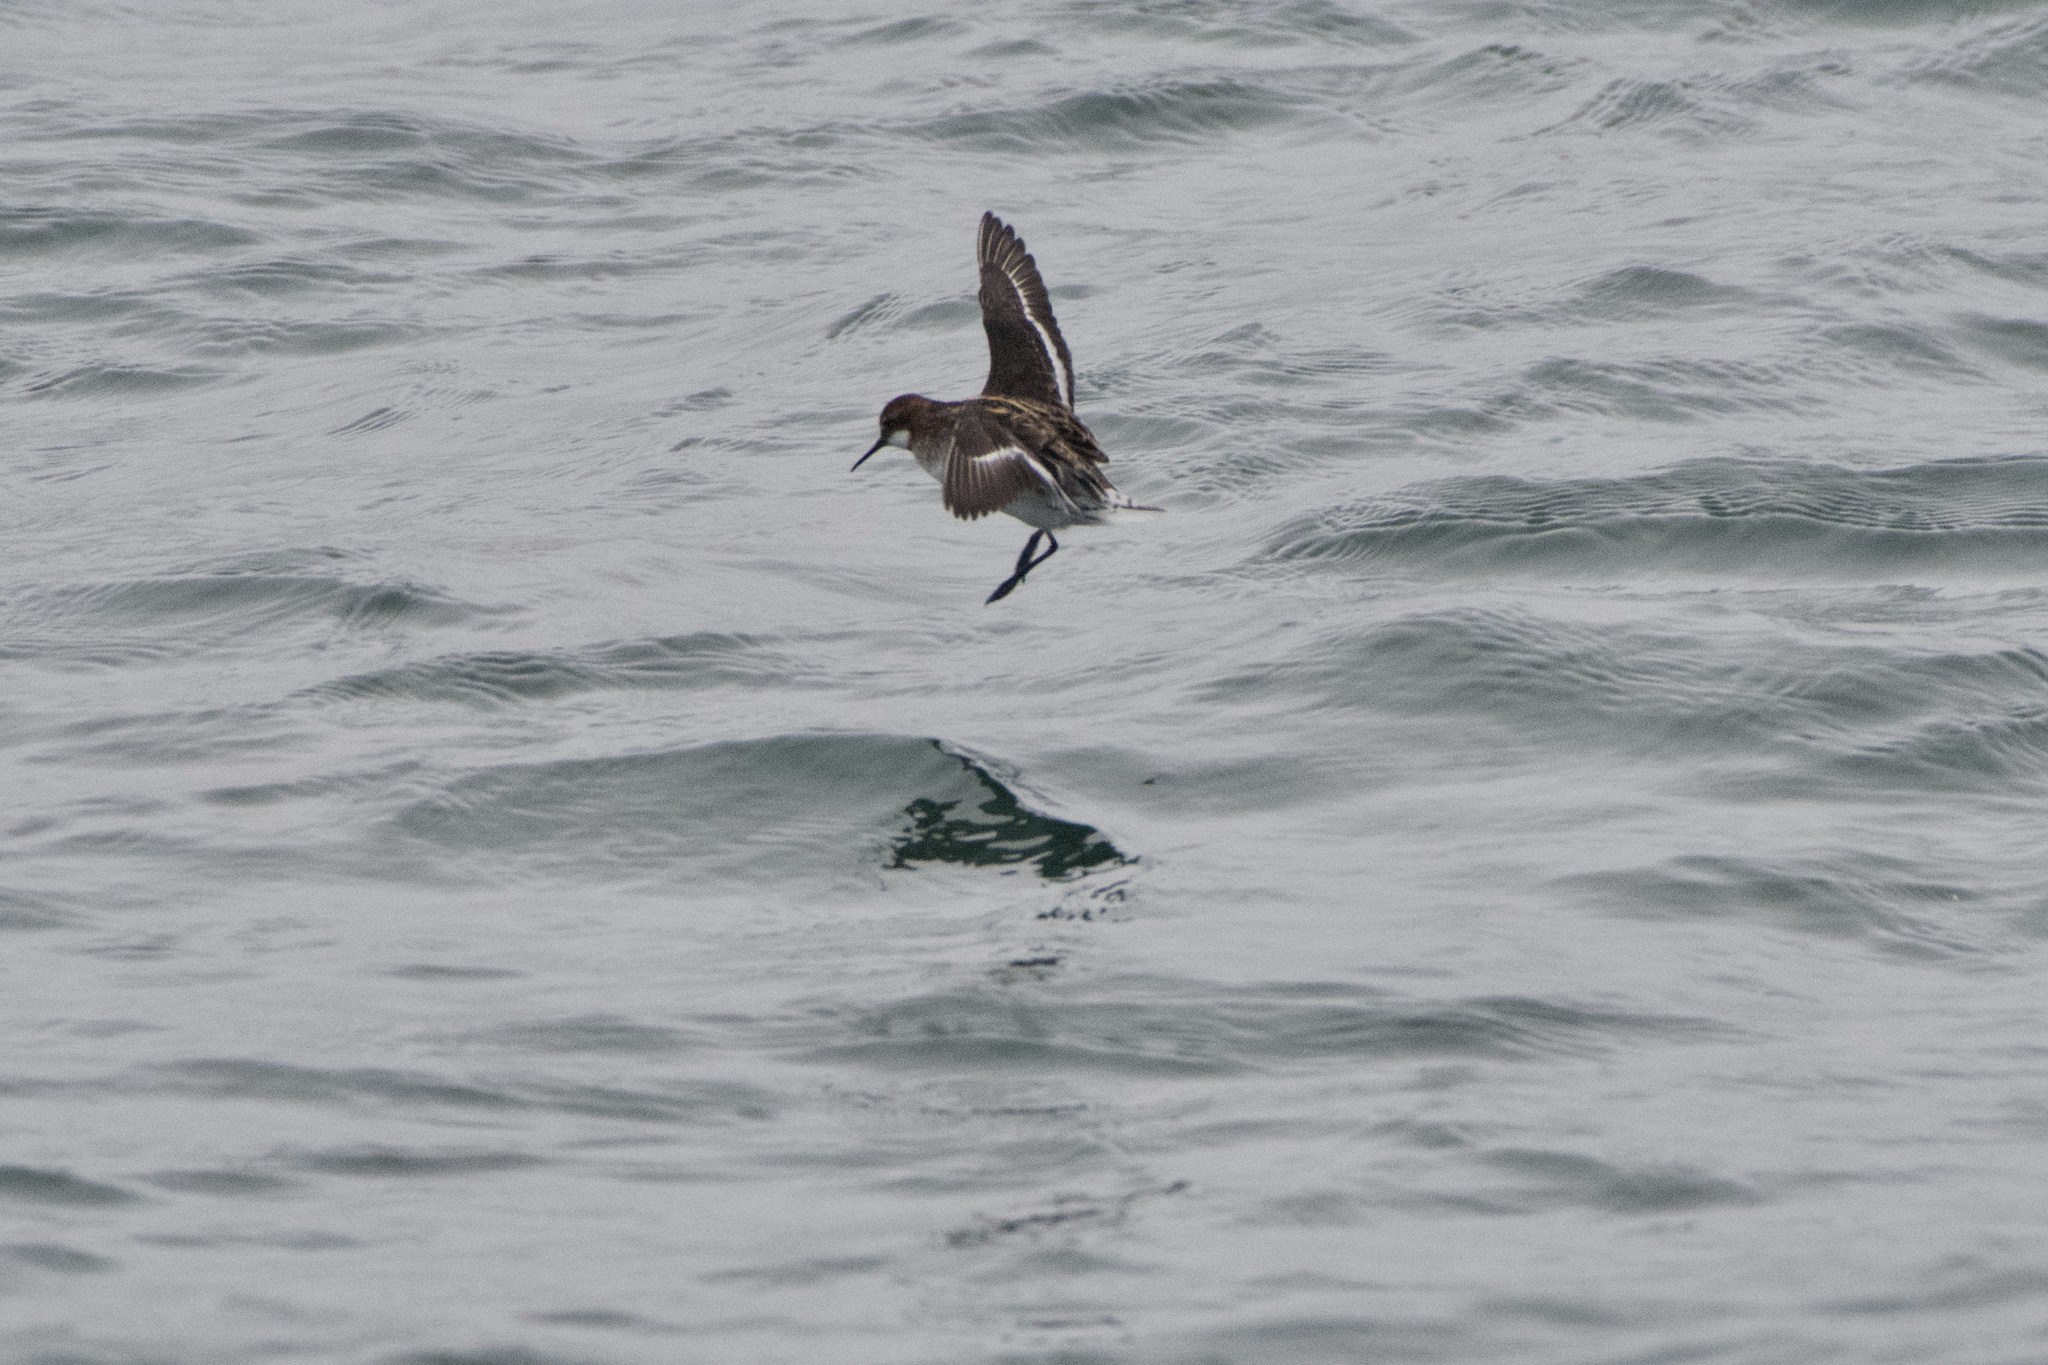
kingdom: Animalia
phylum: Chordata
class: Aves
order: Charadriiformes
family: Scolopacidae
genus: Phalaropus
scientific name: Phalaropus lobatus
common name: Red-necked phalarope
